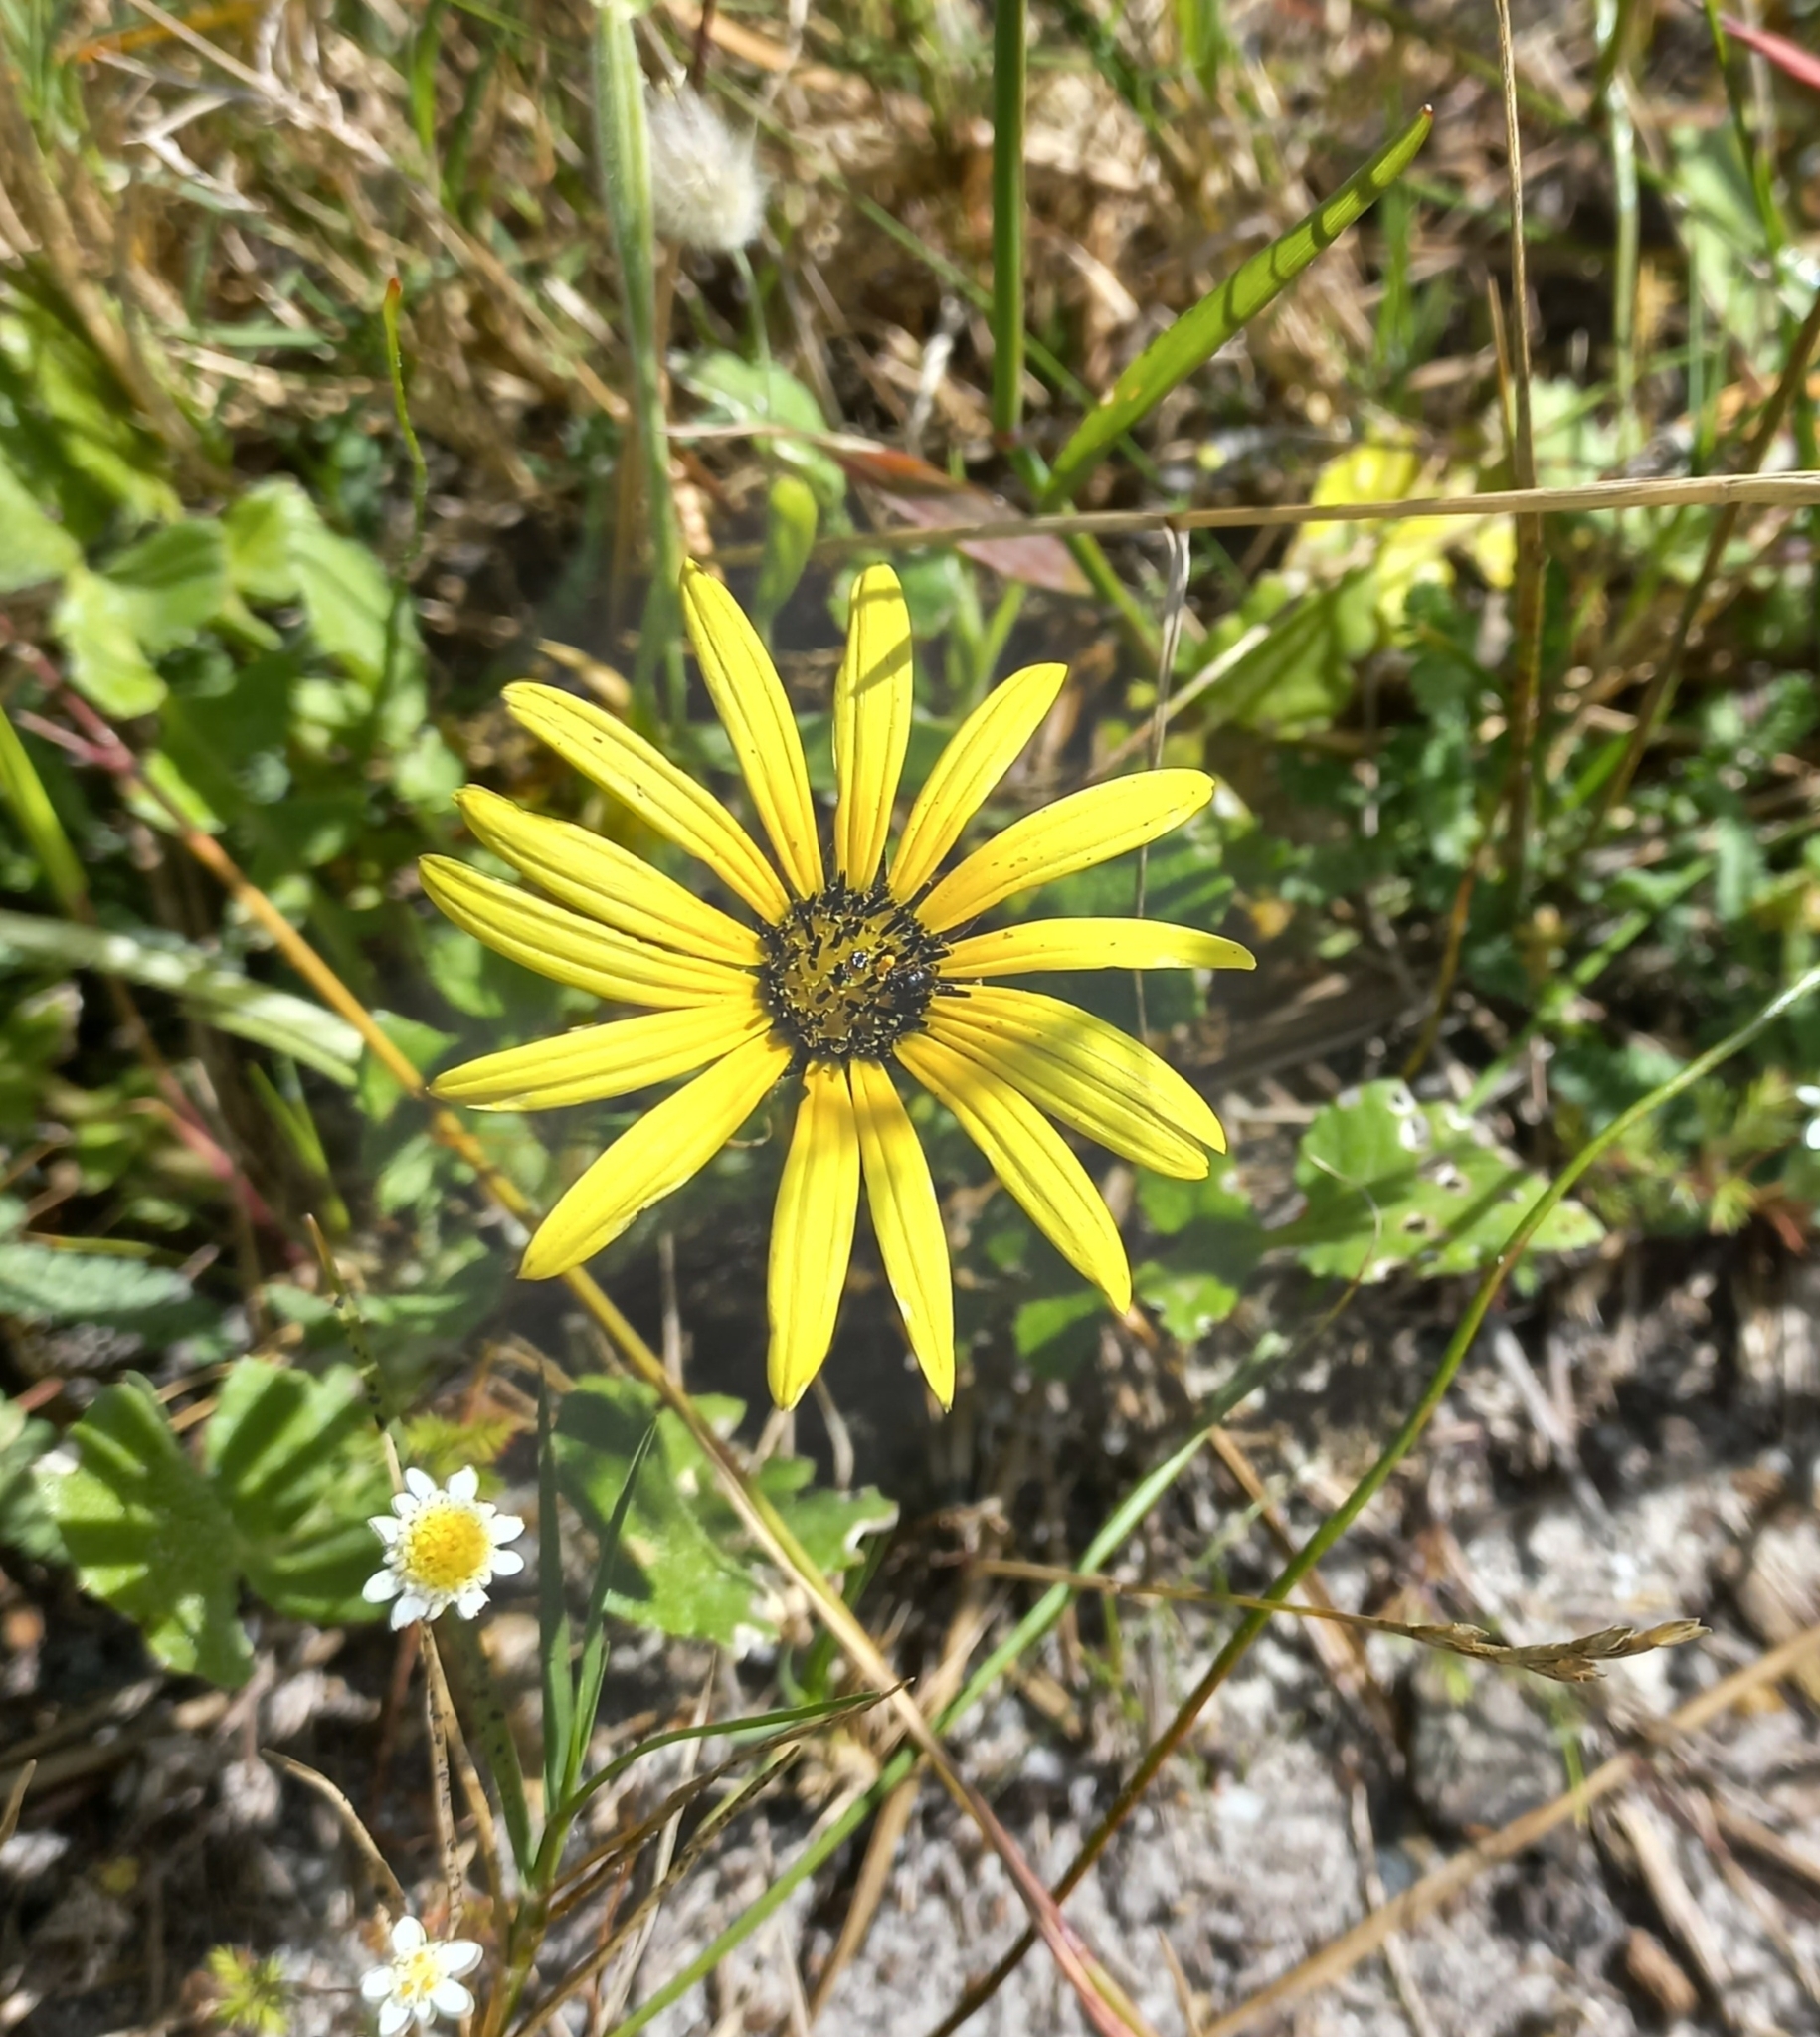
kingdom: Plantae
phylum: Tracheophyta
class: Magnoliopsida
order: Asterales
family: Asteraceae
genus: Arctotheca
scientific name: Arctotheca calendula
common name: Capeweed
